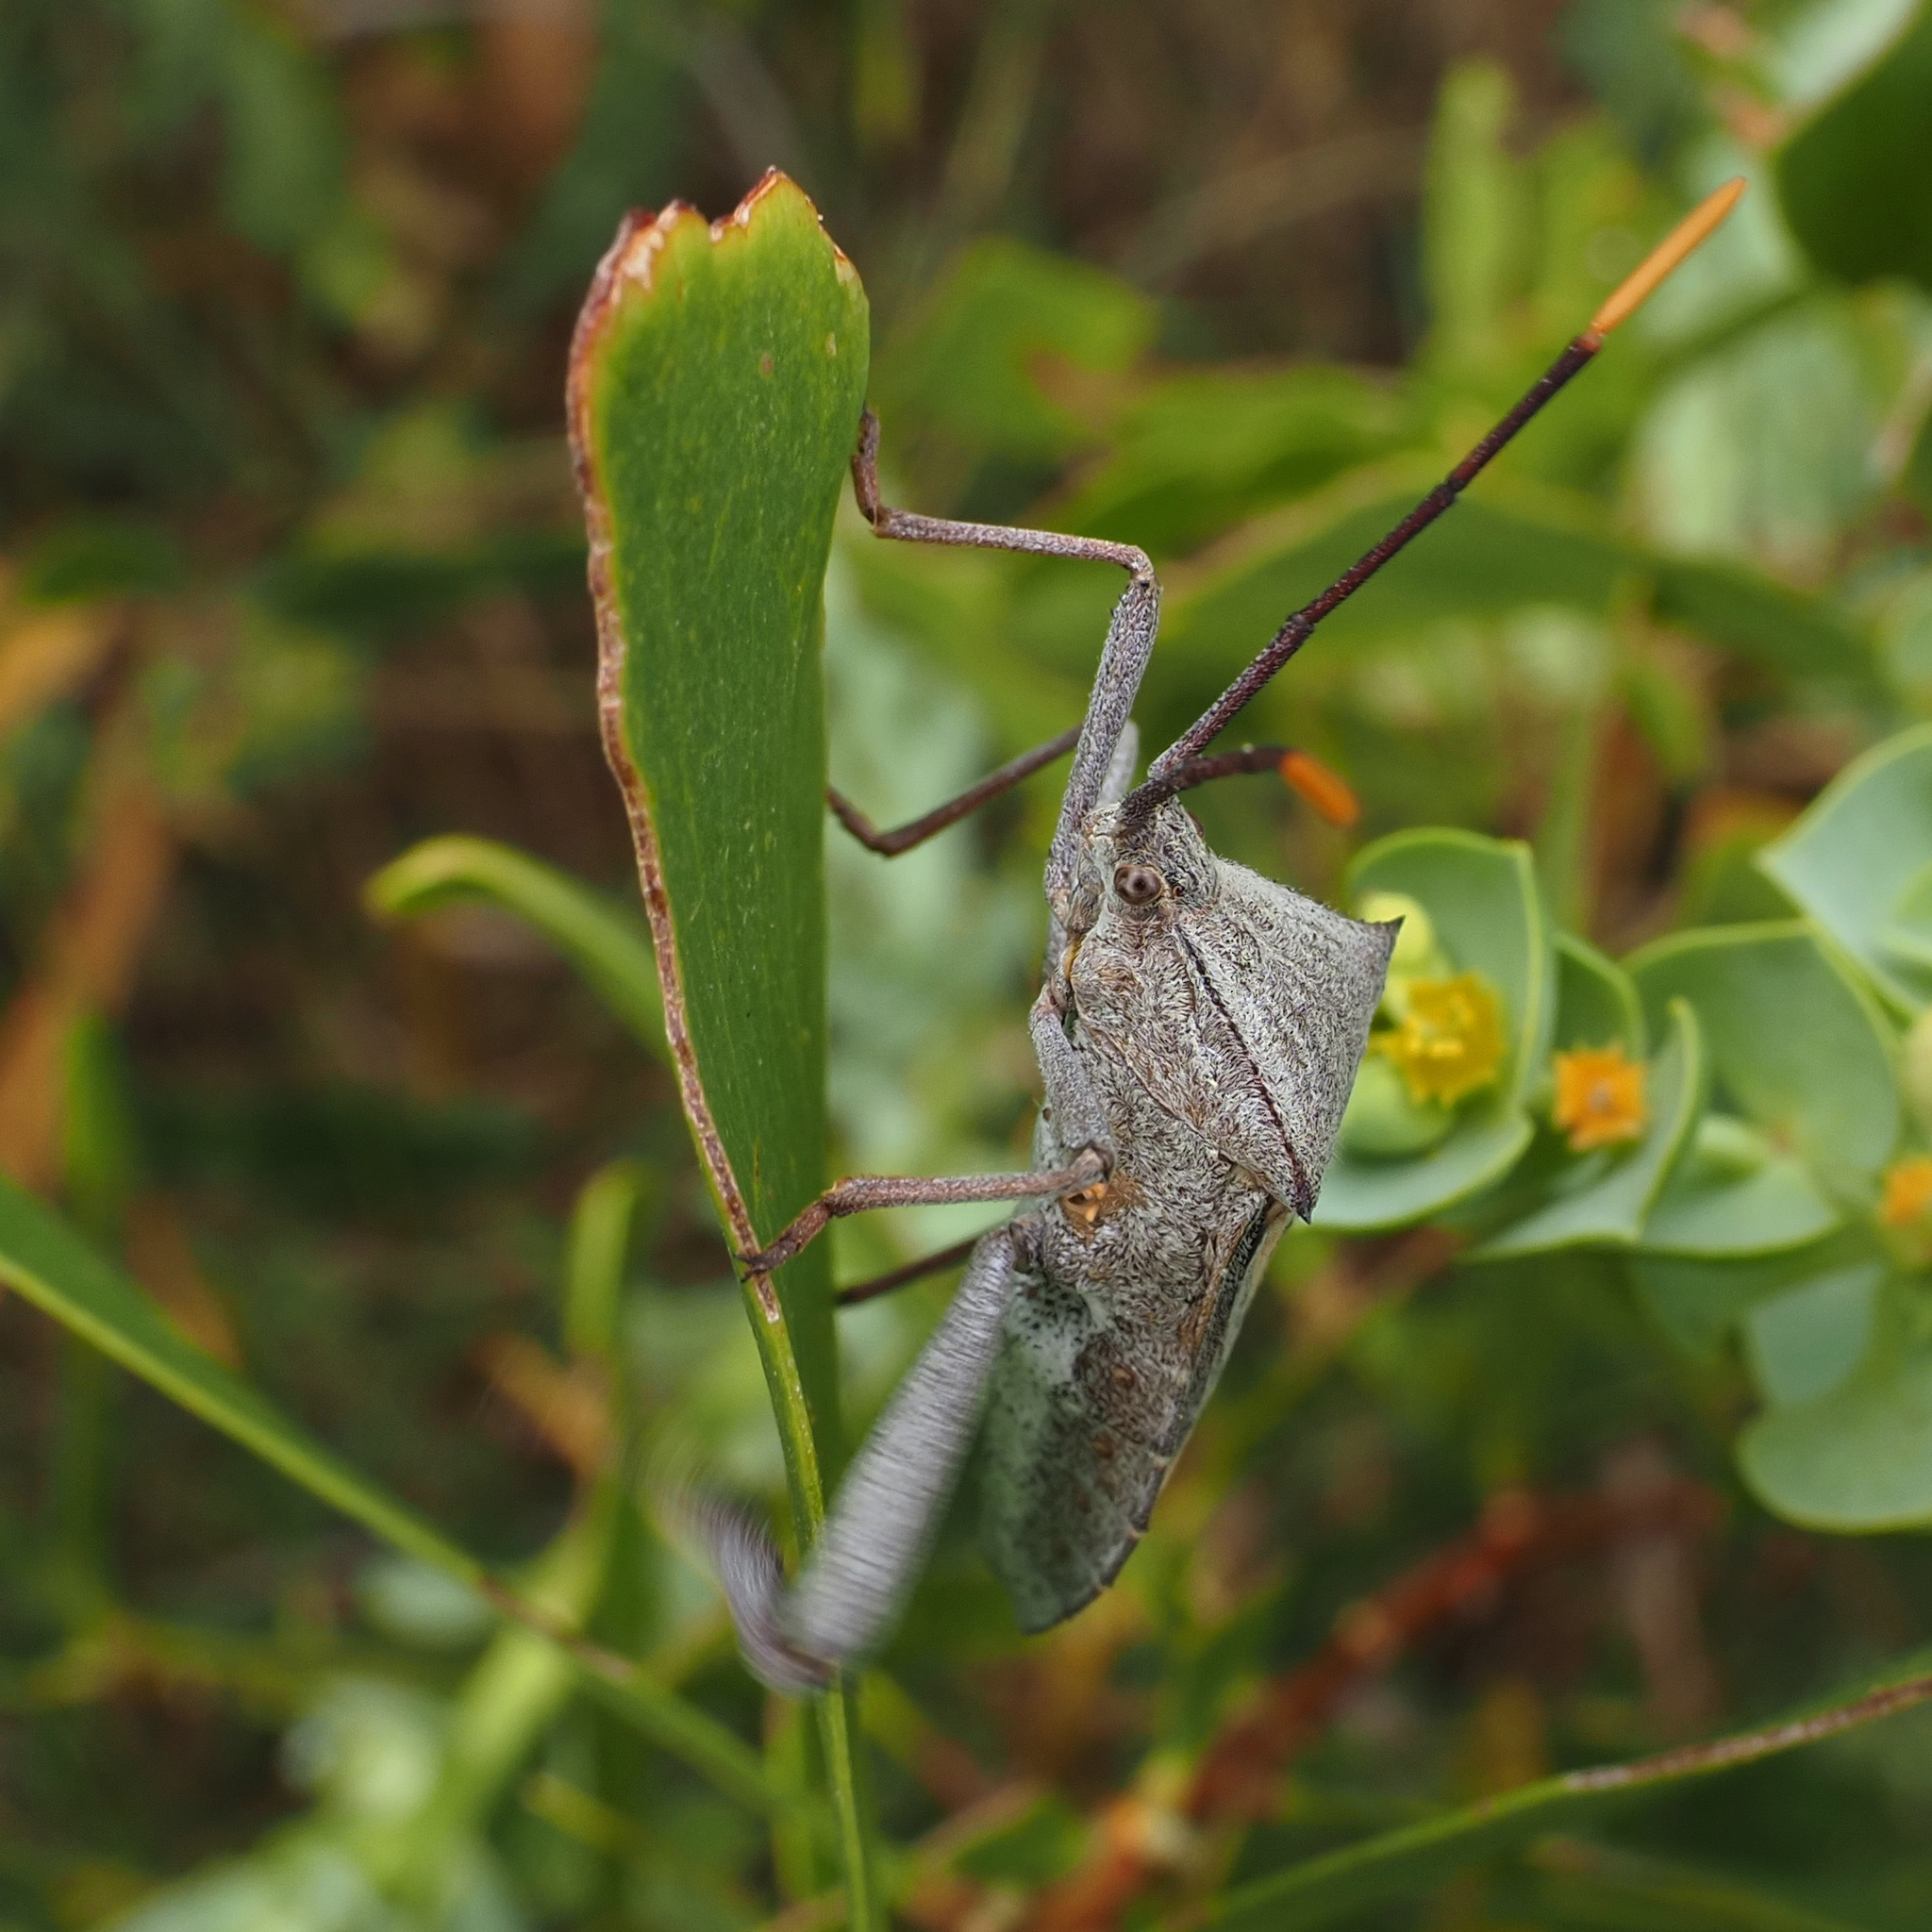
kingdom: Animalia
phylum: Arthropoda
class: Insecta
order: Hemiptera
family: Coreidae
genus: Mictis
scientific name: Mictis profana
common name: Crusader bug
